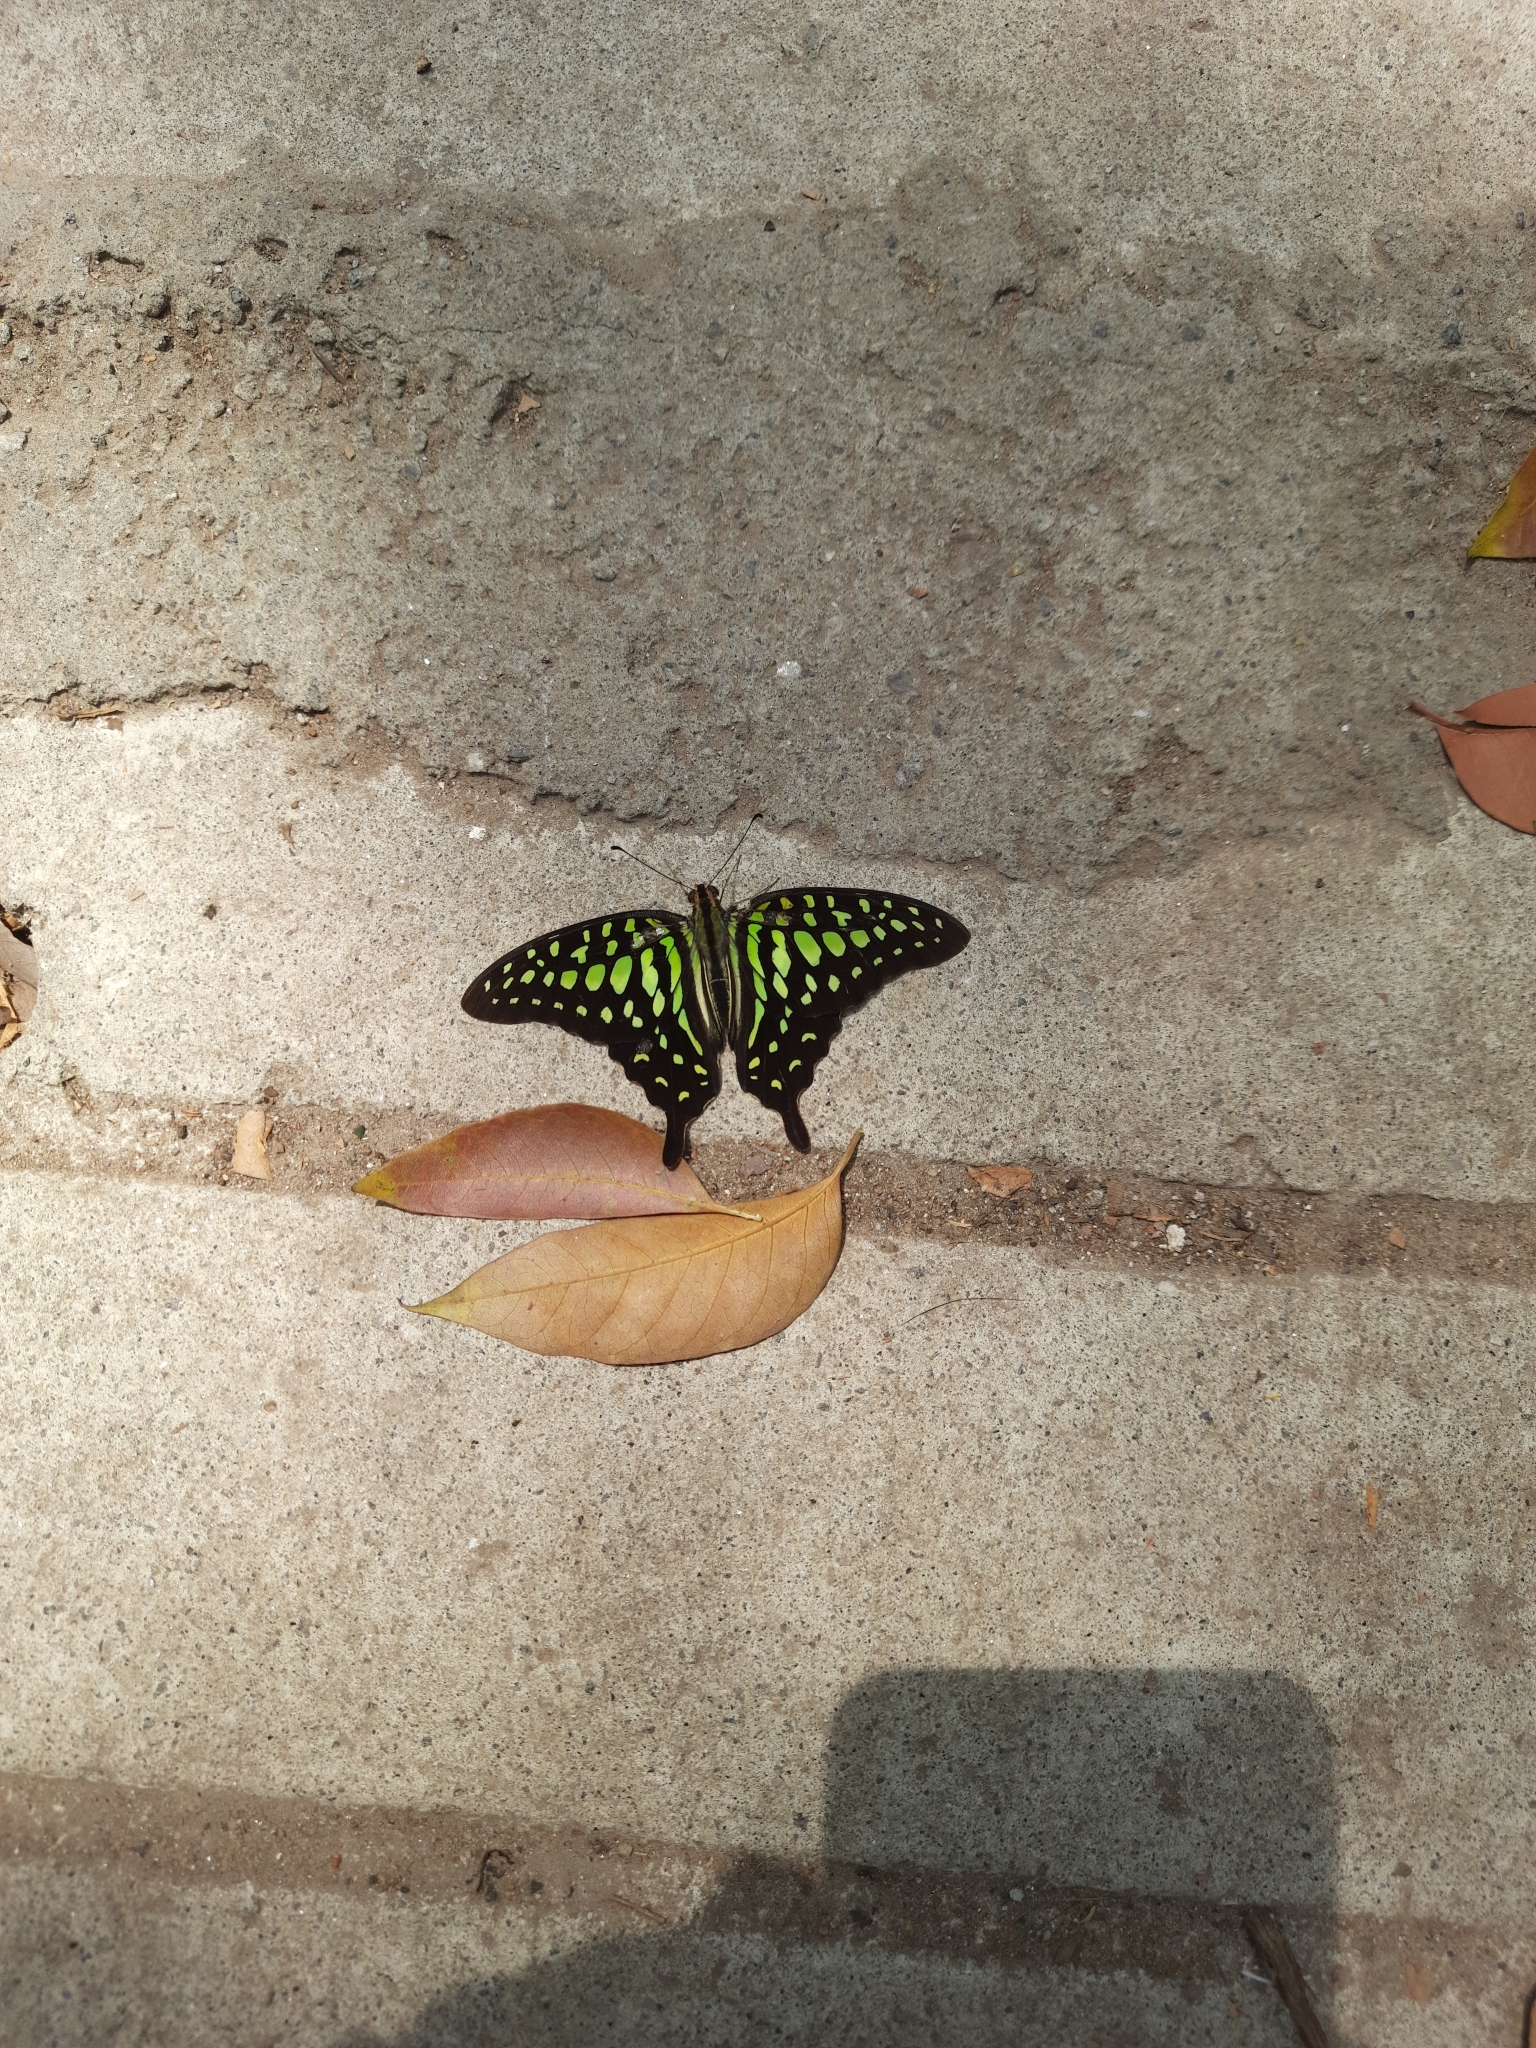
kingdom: Animalia
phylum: Arthropoda
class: Insecta
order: Lepidoptera
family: Papilionidae
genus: Graphium
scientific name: Graphium agamemnon
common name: Tailed jay
